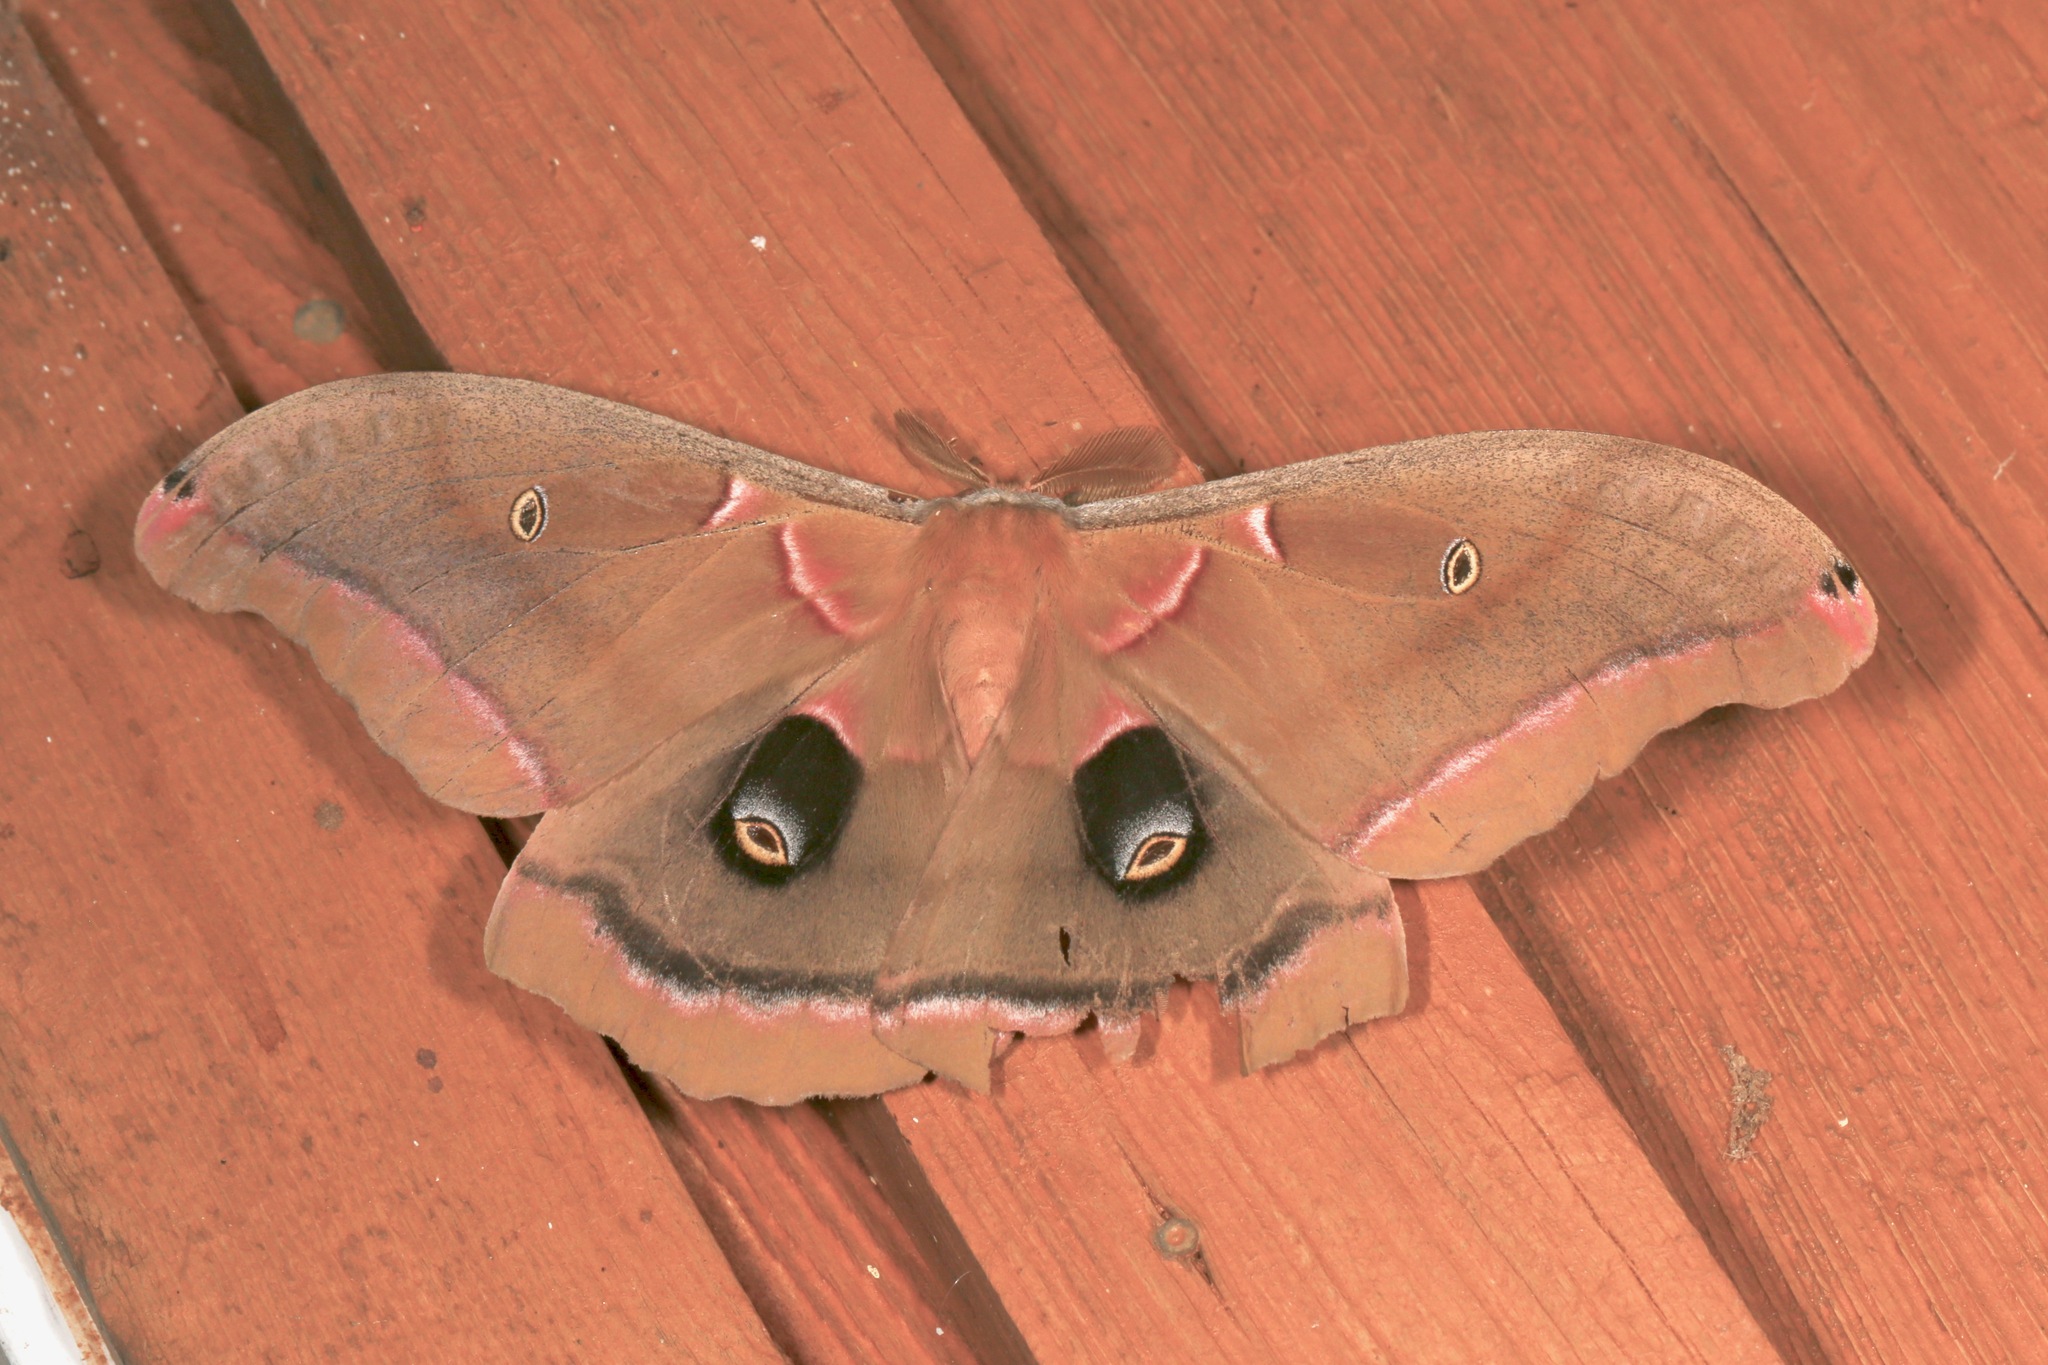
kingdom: Animalia
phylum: Arthropoda
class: Insecta
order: Lepidoptera
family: Saturniidae
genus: Antheraea
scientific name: Antheraea polyphemus
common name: Polyphemus moth
